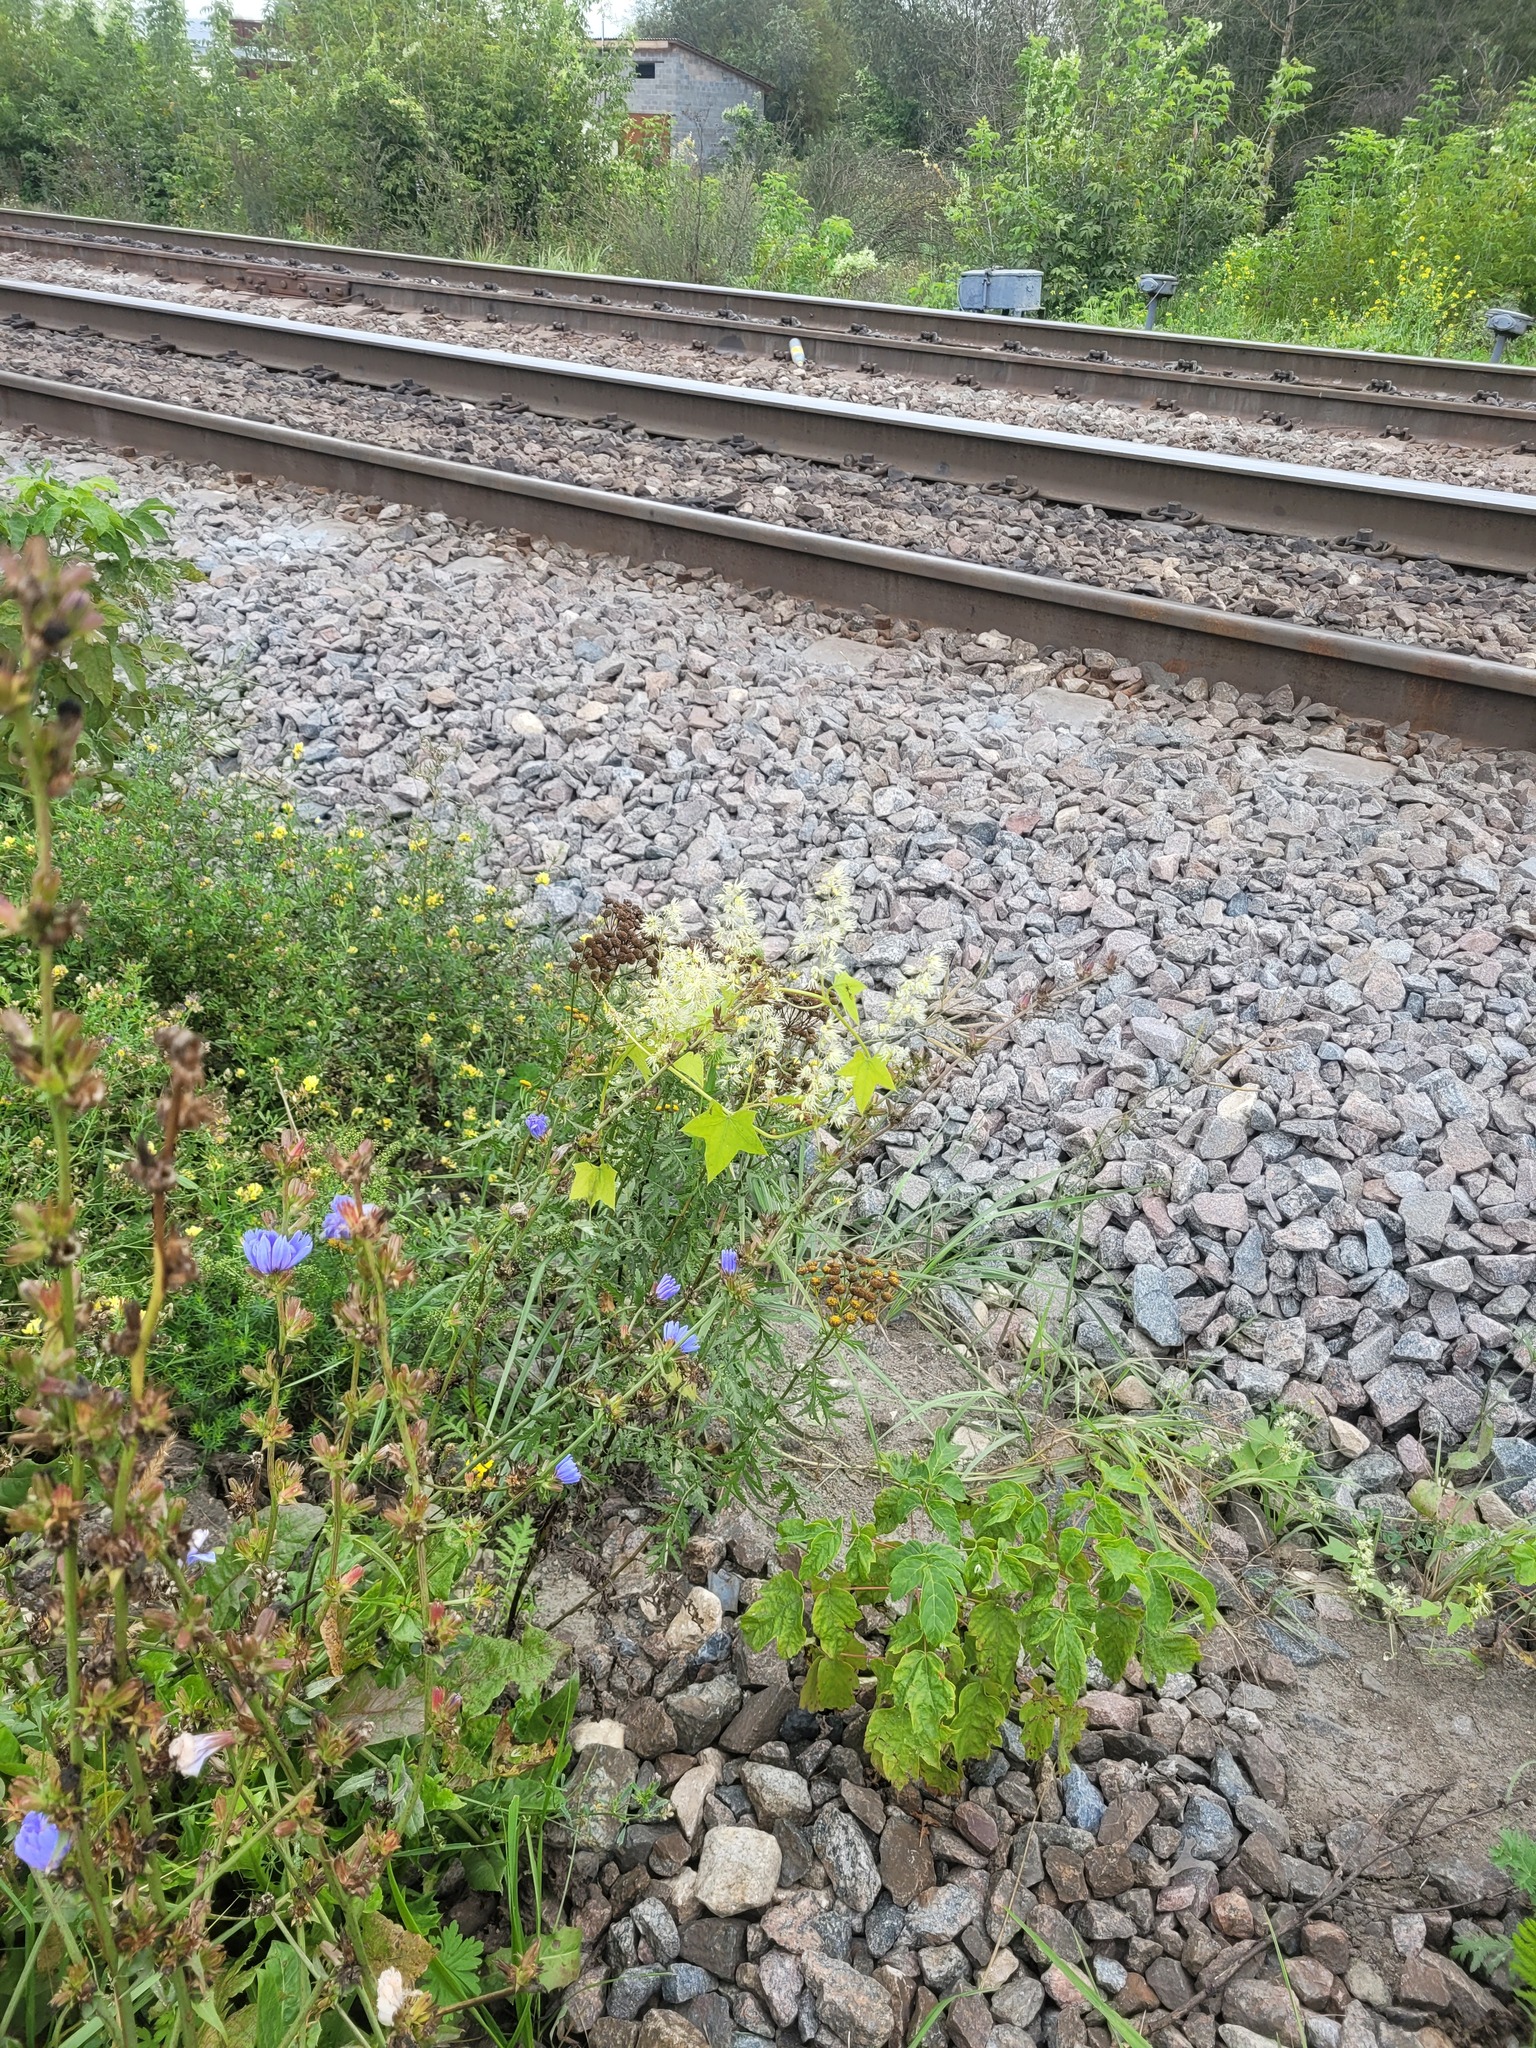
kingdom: Plantae
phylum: Tracheophyta
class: Magnoliopsida
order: Cucurbitales
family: Cucurbitaceae
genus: Echinocystis
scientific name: Echinocystis lobata
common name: Wild cucumber
